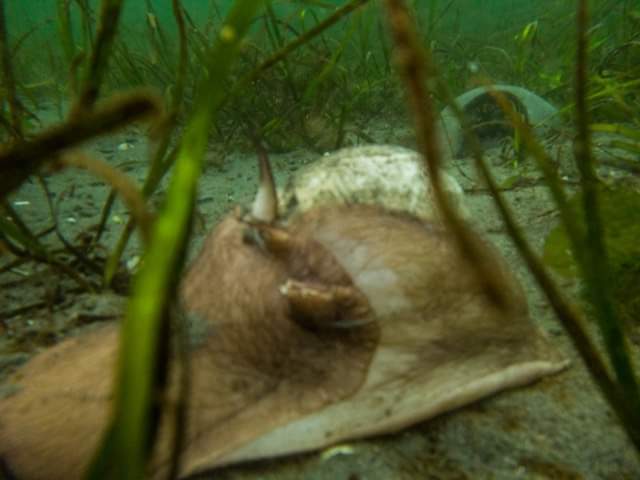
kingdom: Animalia
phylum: Mollusca
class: Gastropoda
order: Littorinimorpha
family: Naticidae
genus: Neverita
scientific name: Neverita lewisii
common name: Lewis' moonsnail
